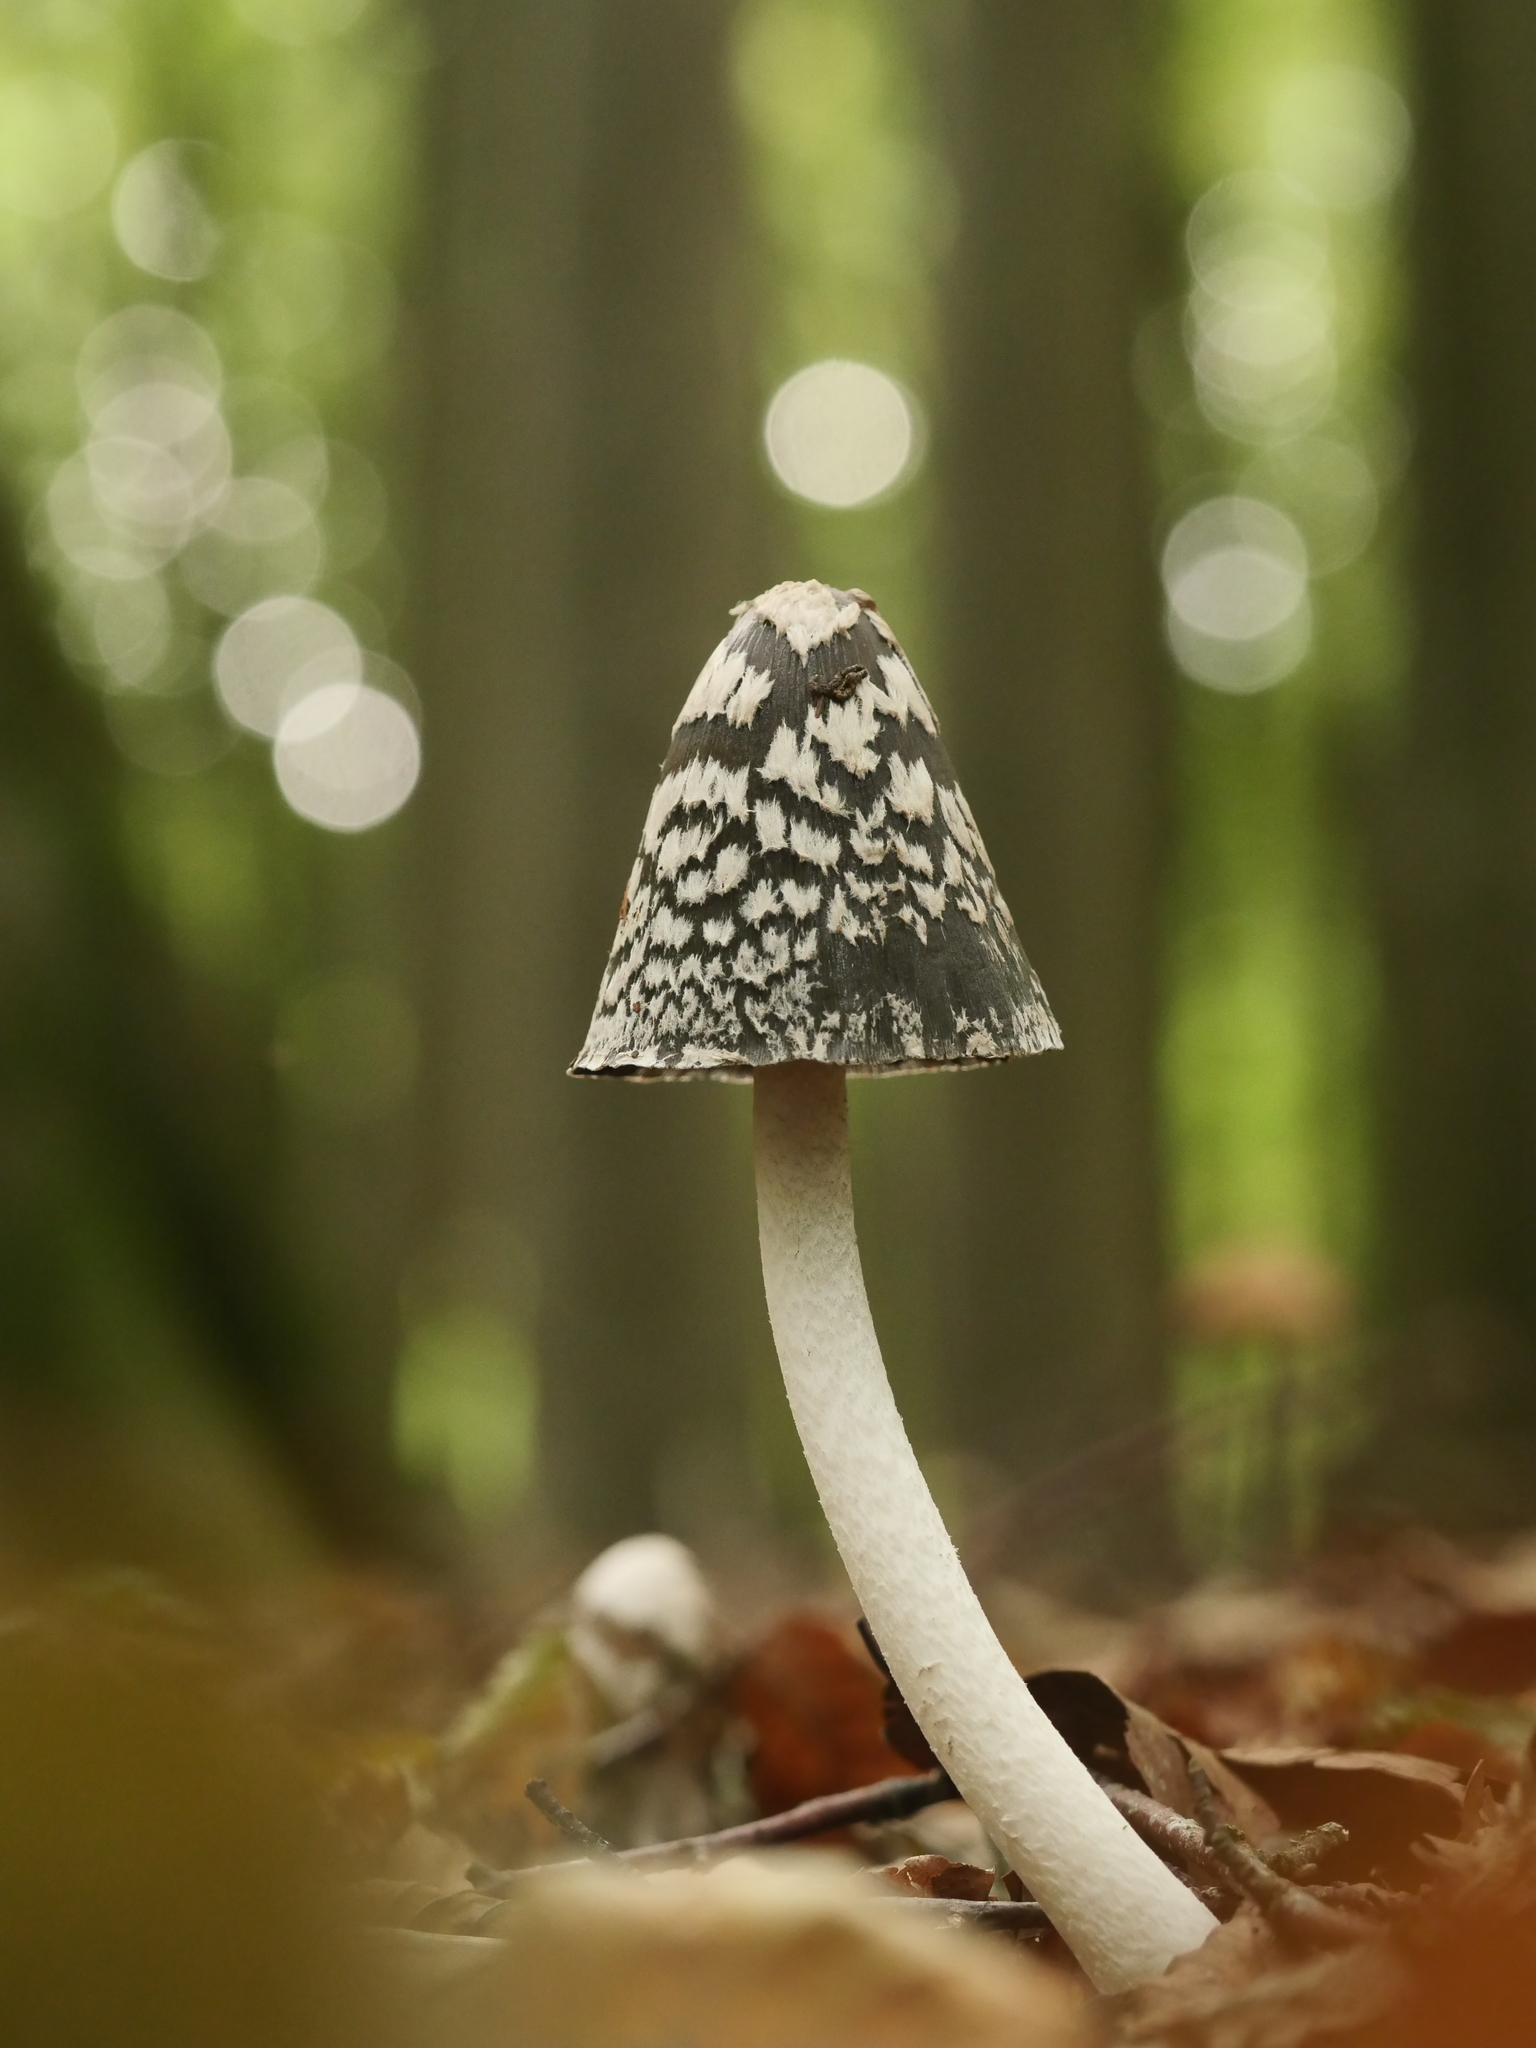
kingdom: Fungi
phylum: Basidiomycota
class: Agaricomycetes
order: Agaricales
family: Psathyrellaceae
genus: Coprinopsis
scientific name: Coprinopsis picacea
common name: Magpie inkcap
